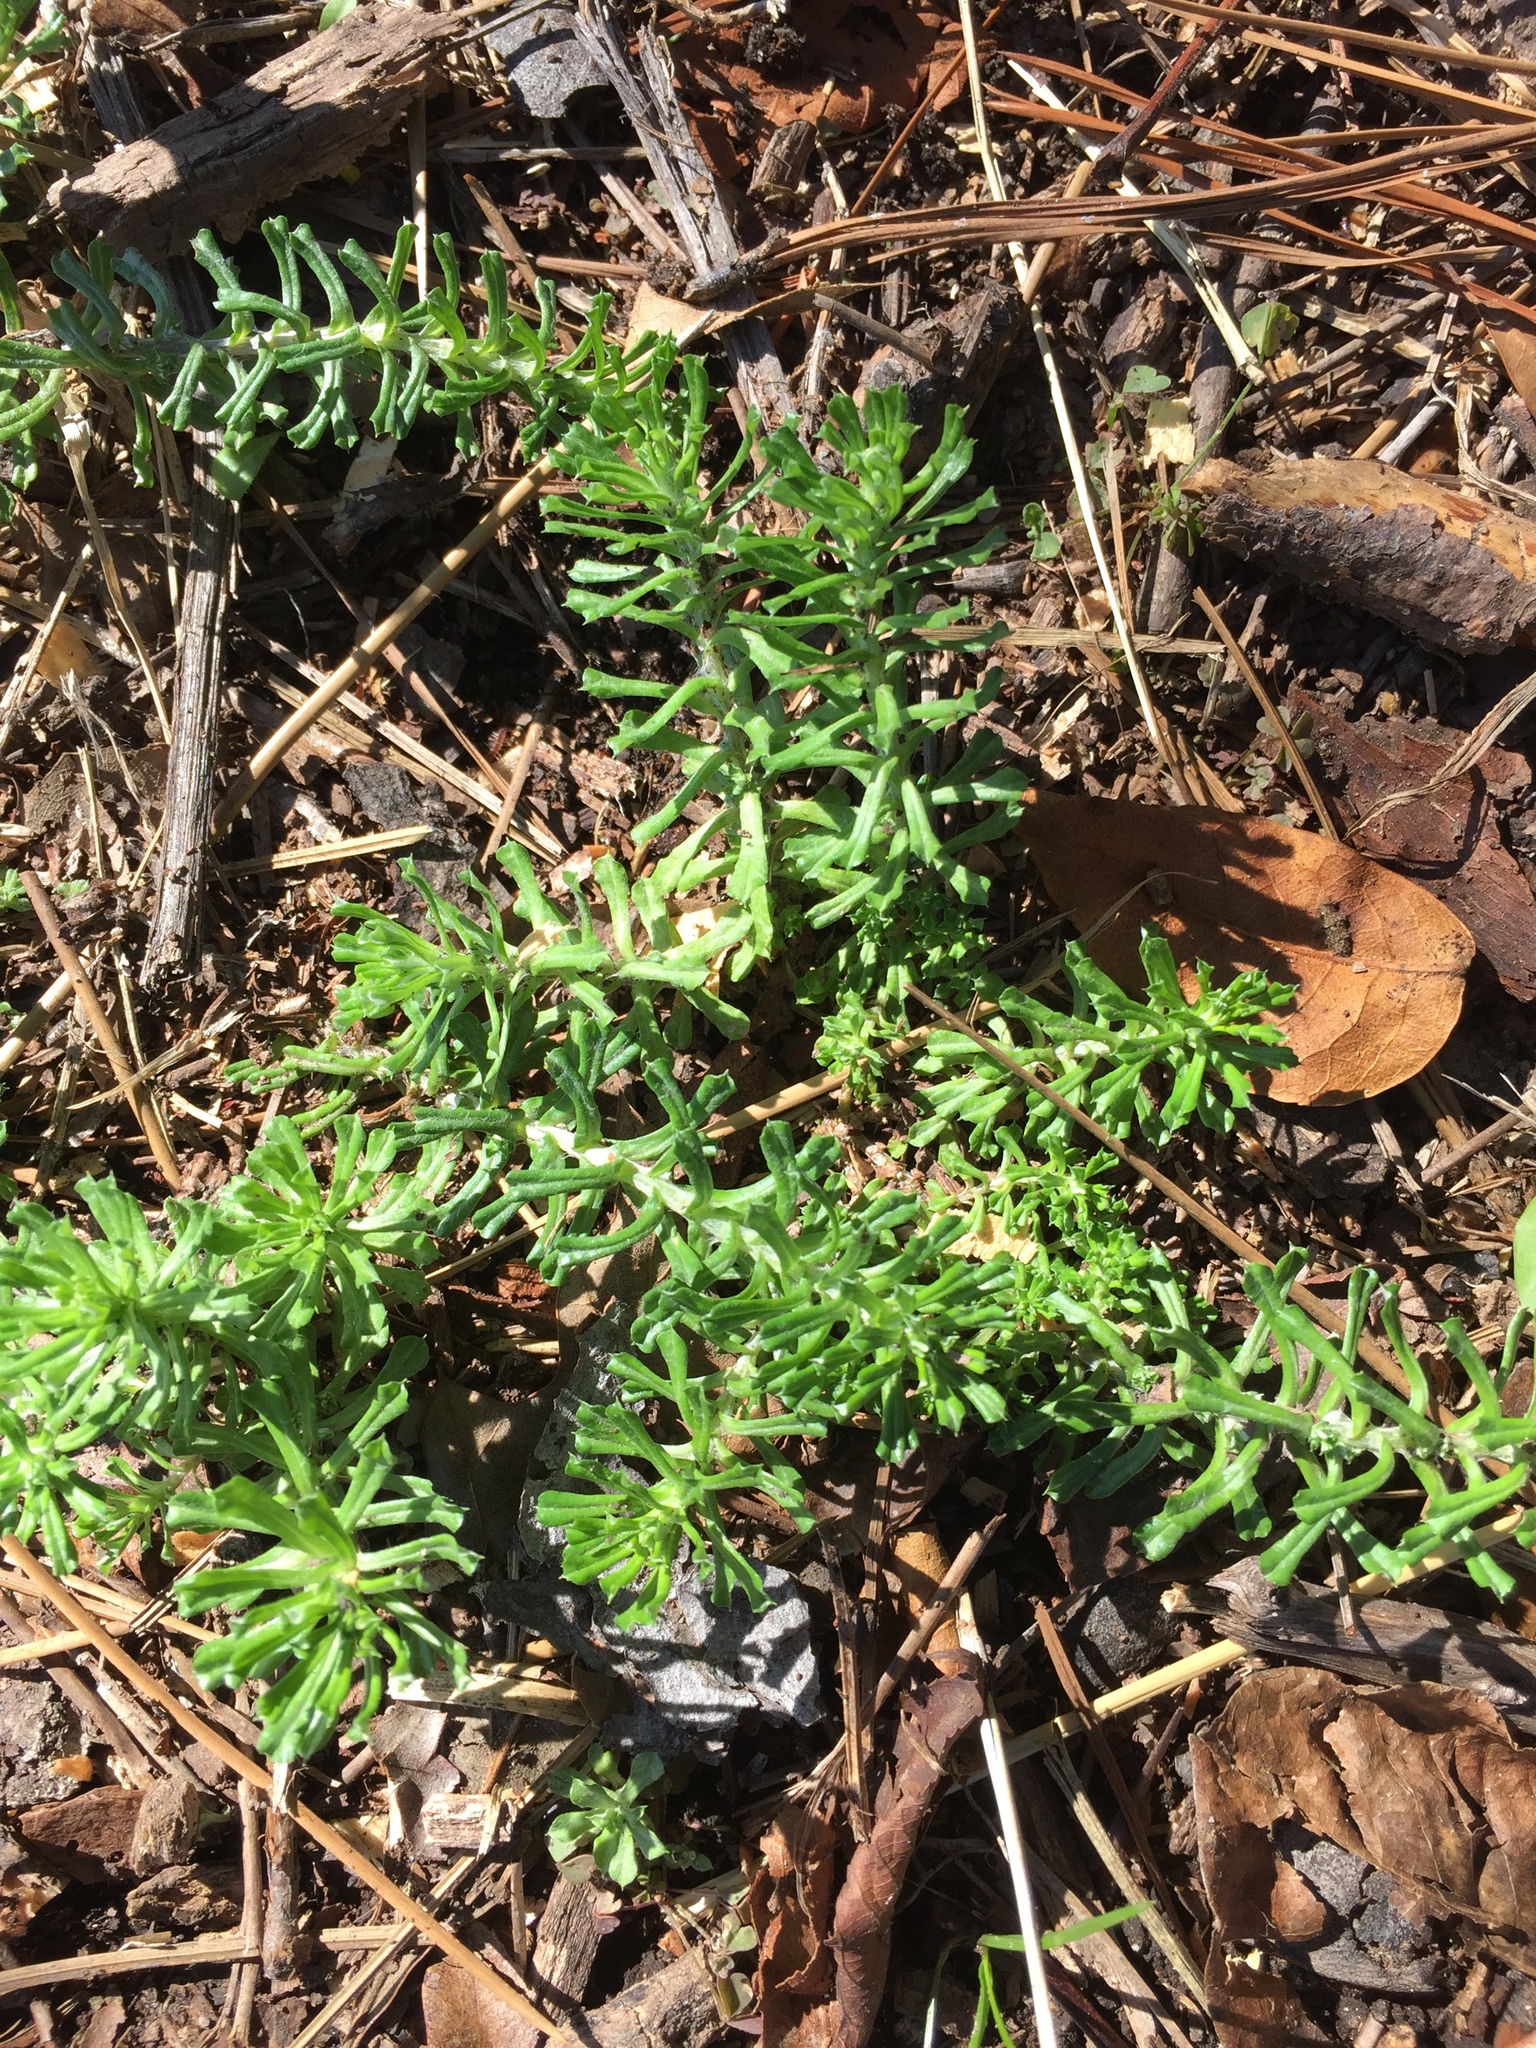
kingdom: Plantae
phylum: Tracheophyta
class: Magnoliopsida
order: Asterales
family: Asteraceae
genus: Facelis
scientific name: Facelis retusa
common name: Annual trampweed
